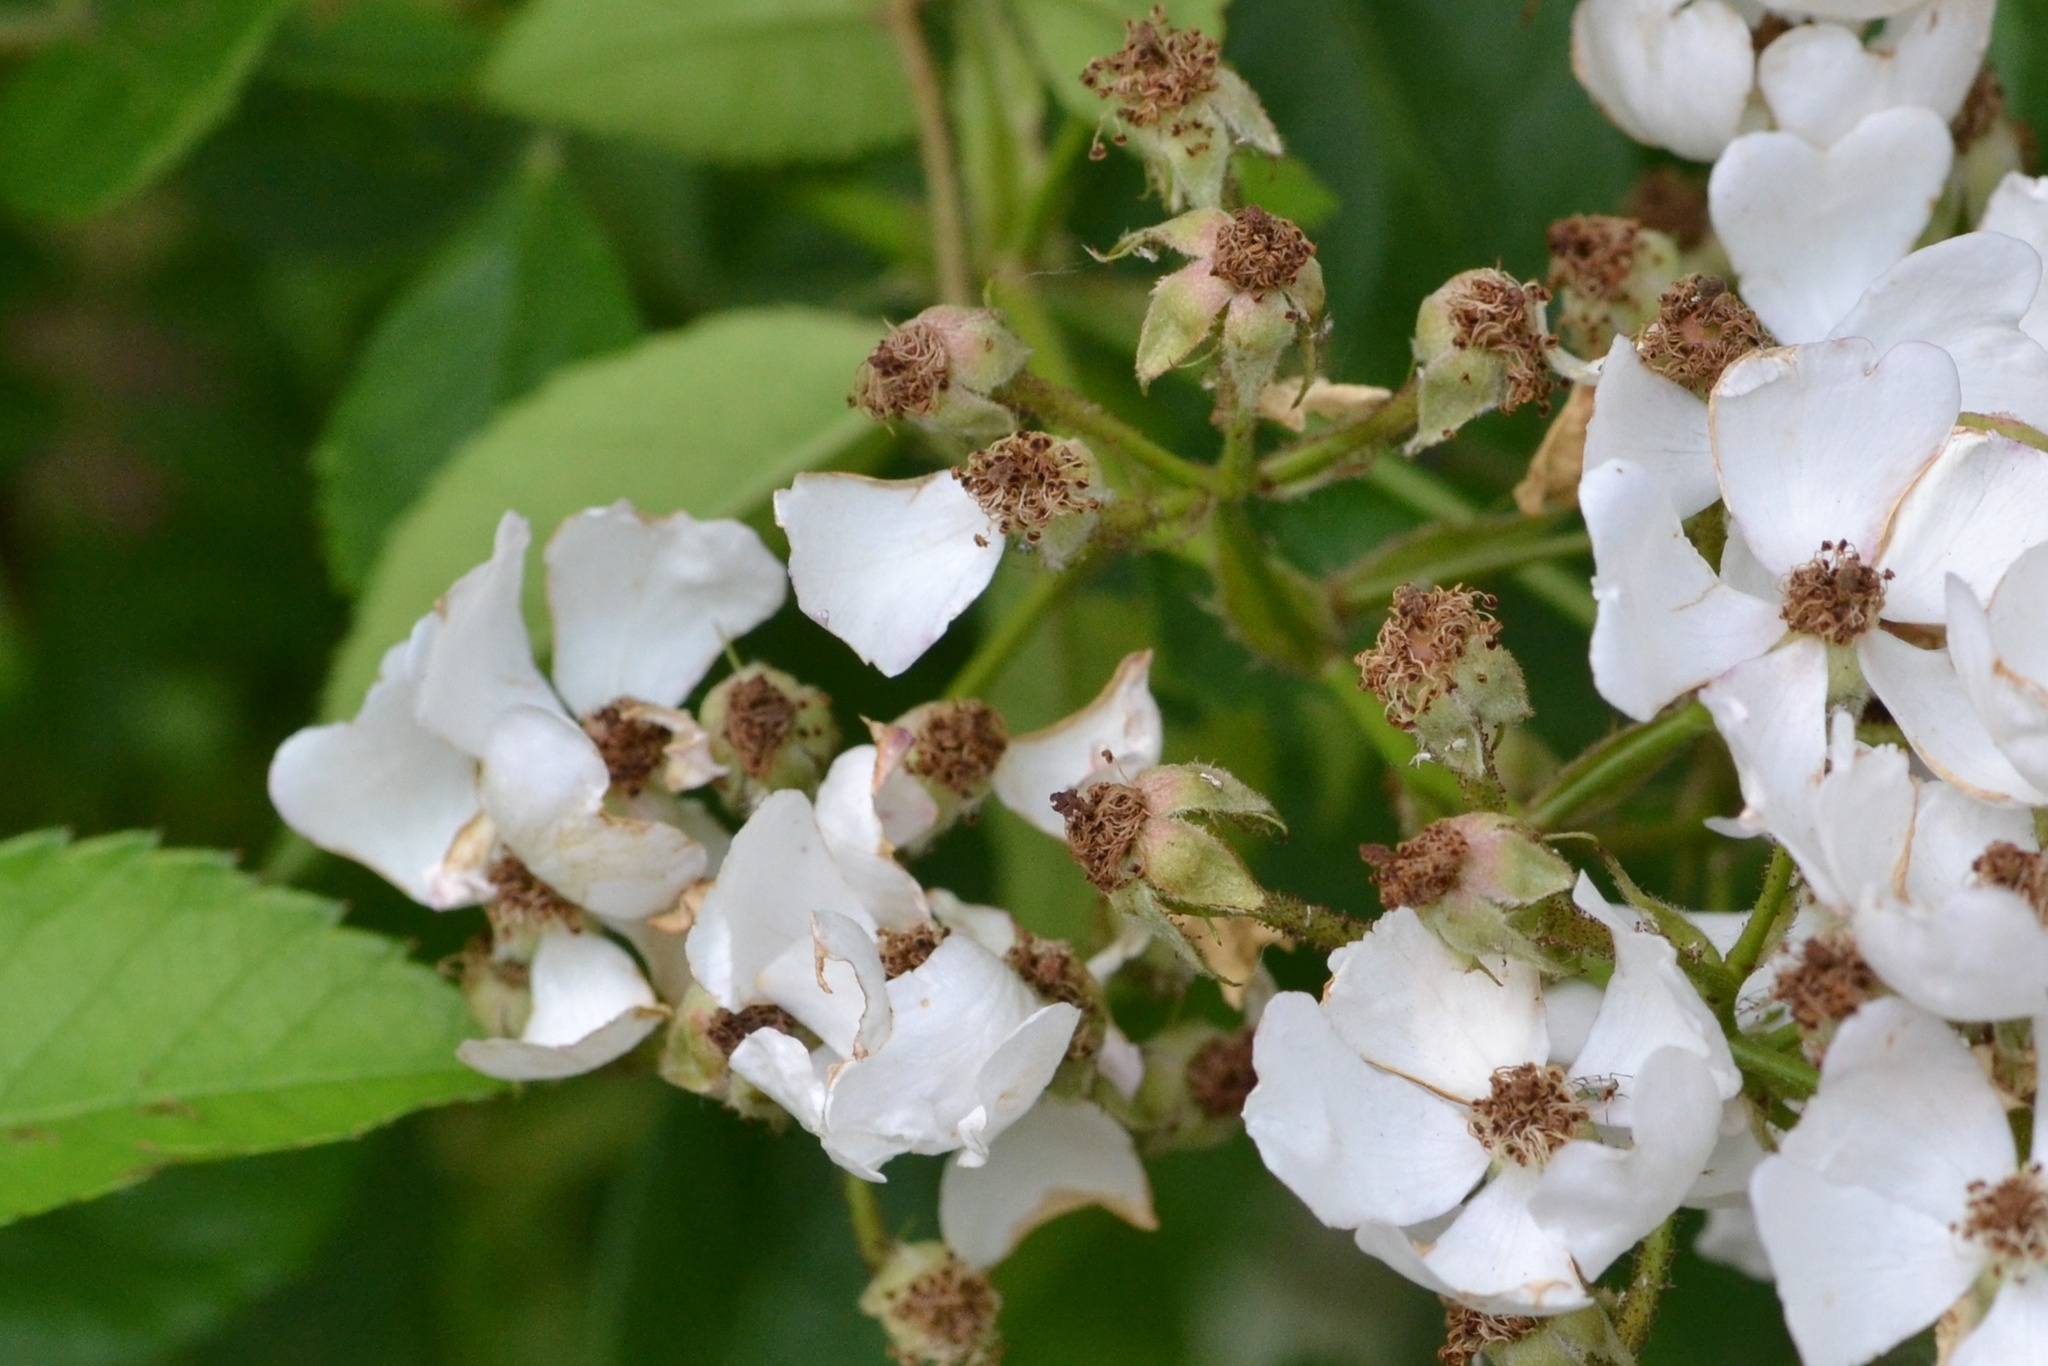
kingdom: Plantae
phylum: Tracheophyta
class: Magnoliopsida
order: Rosales
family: Rosaceae
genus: Rosa
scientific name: Rosa multiflora
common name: Multiflora rose
